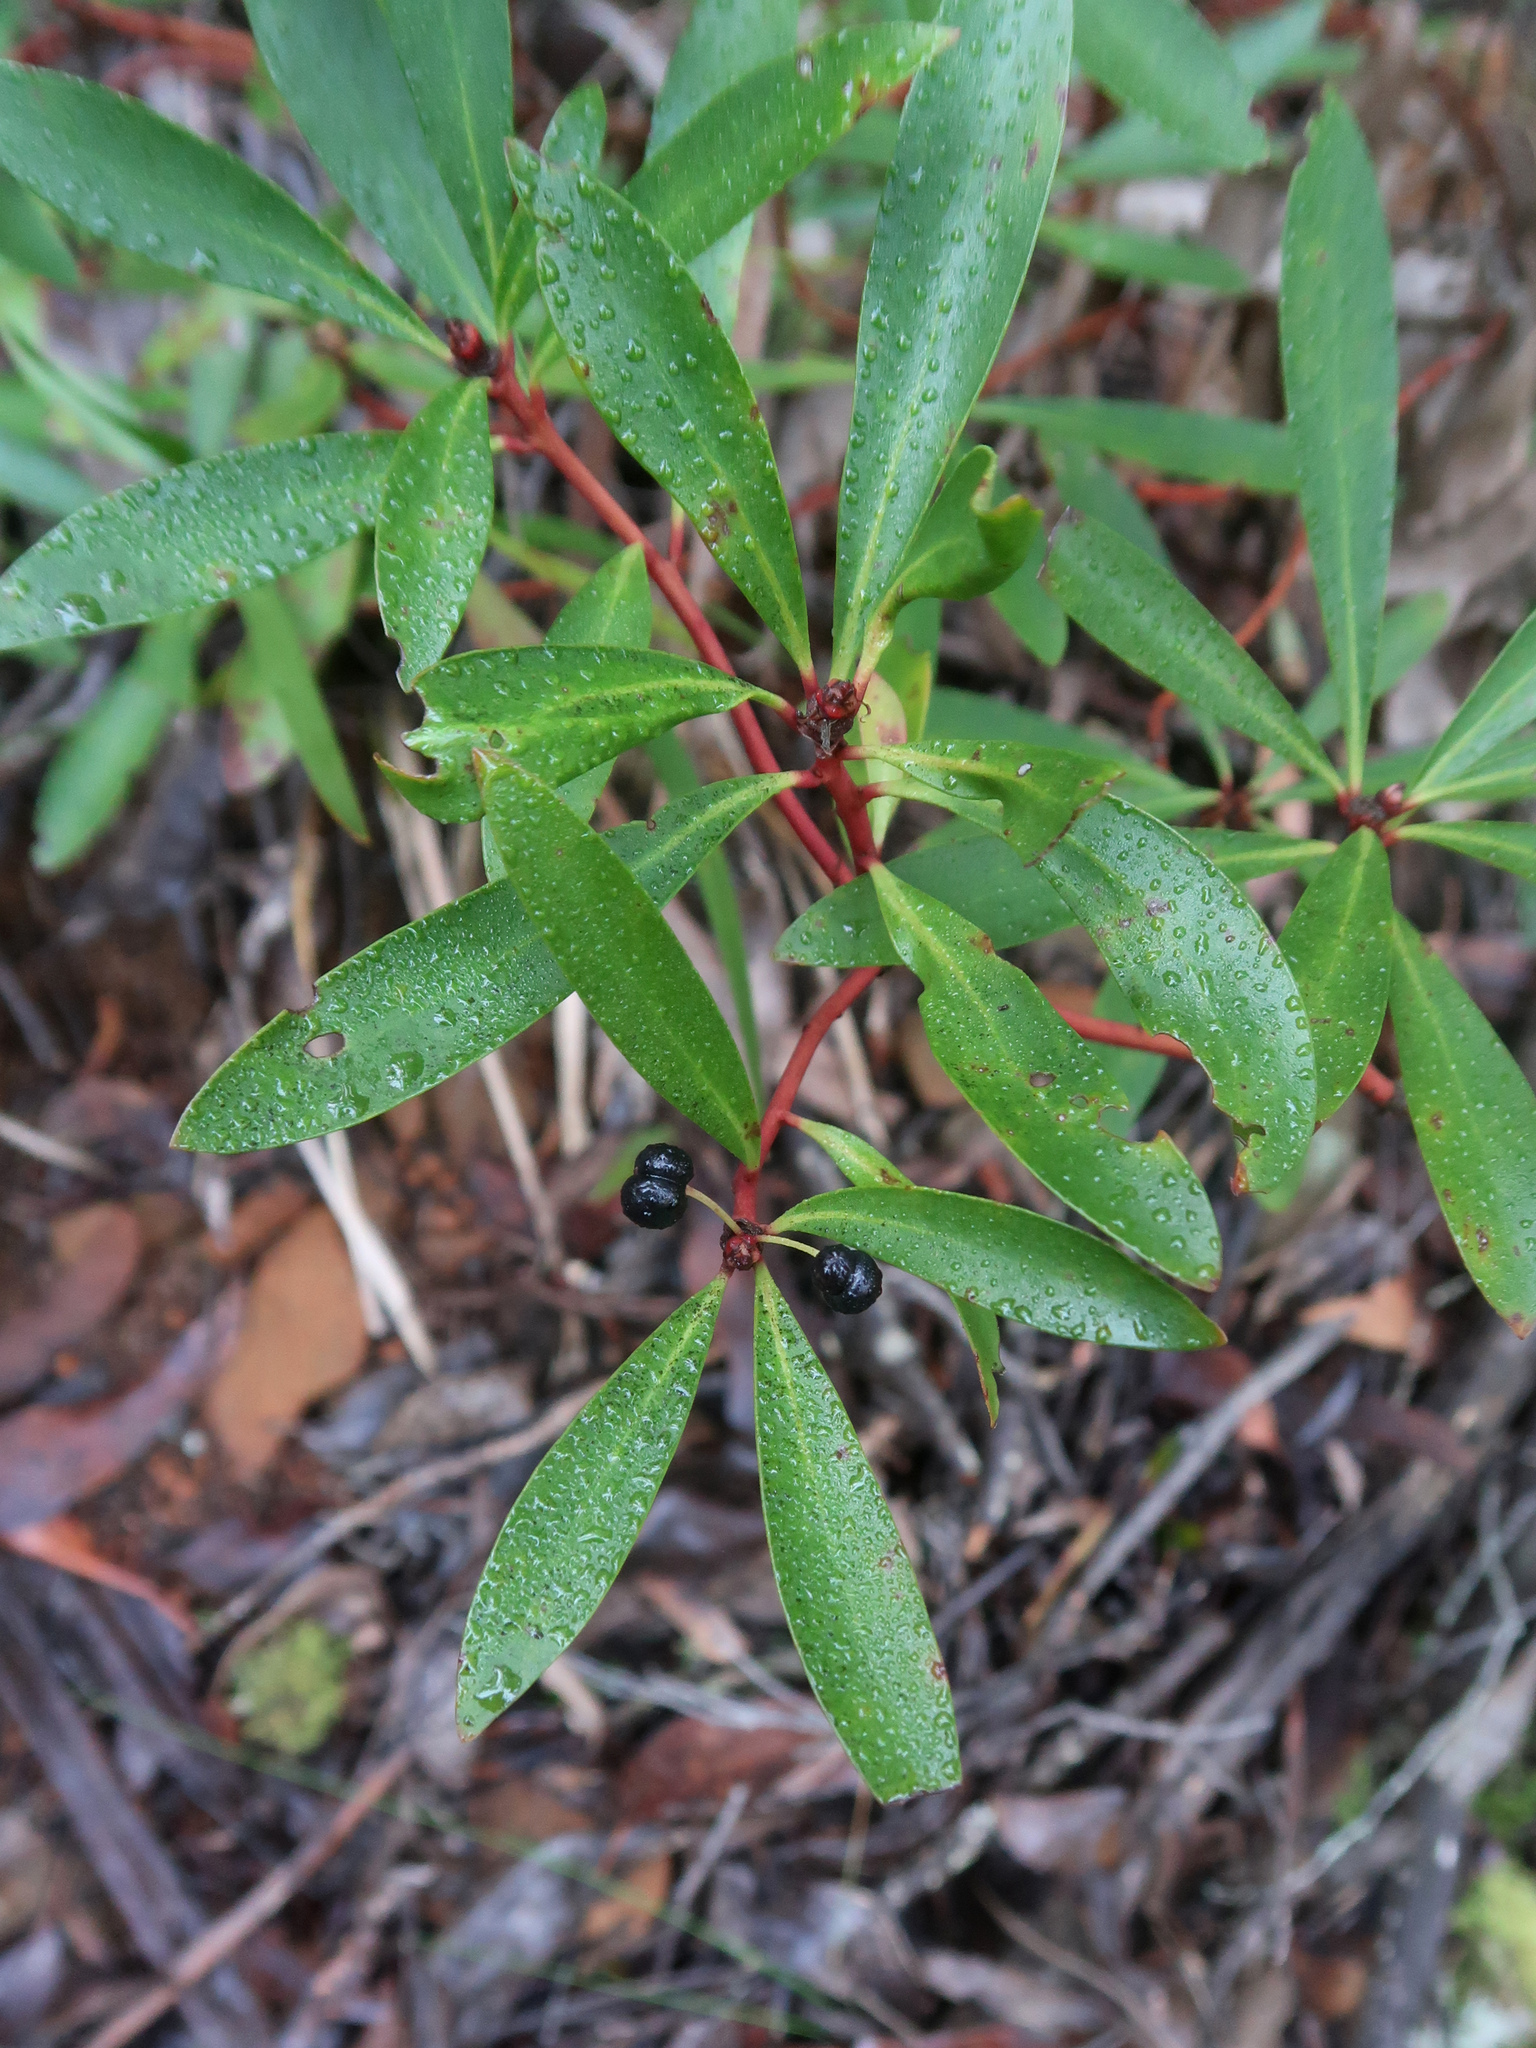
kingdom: Plantae
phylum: Tracheophyta
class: Magnoliopsida
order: Canellales
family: Winteraceae
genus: Drimys
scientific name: Drimys aromatica
